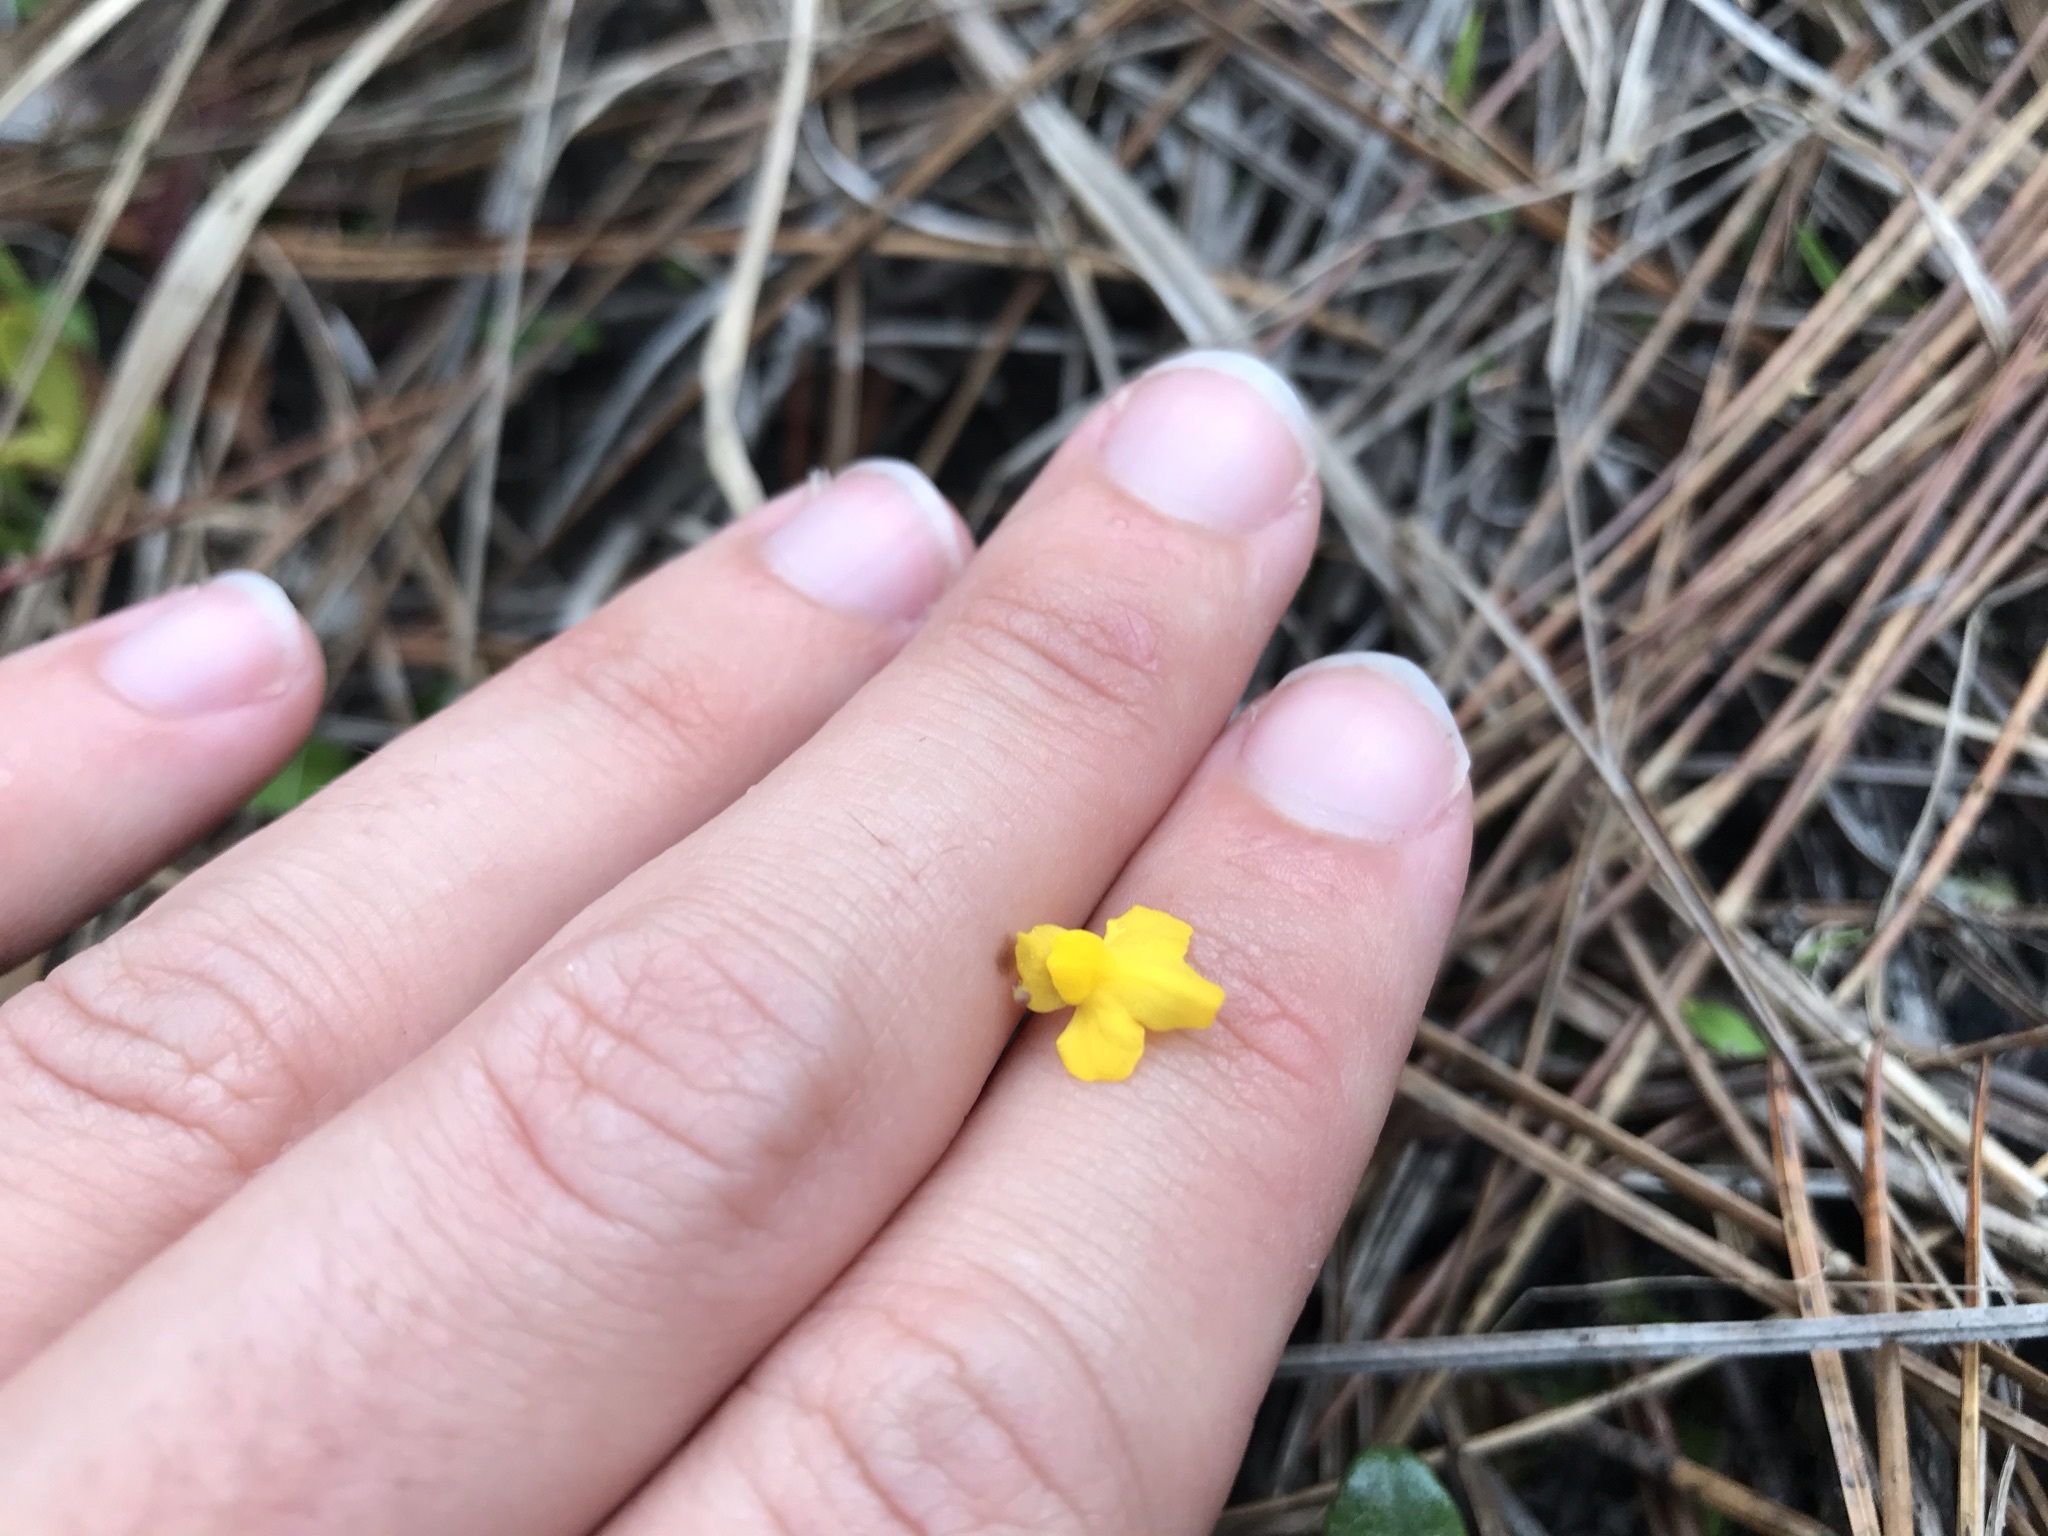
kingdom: Plantae
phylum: Tracheophyta
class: Magnoliopsida
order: Lamiales
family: Lentibulariaceae
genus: Utricularia
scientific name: Utricularia subulata
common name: Tiny bladderwort
